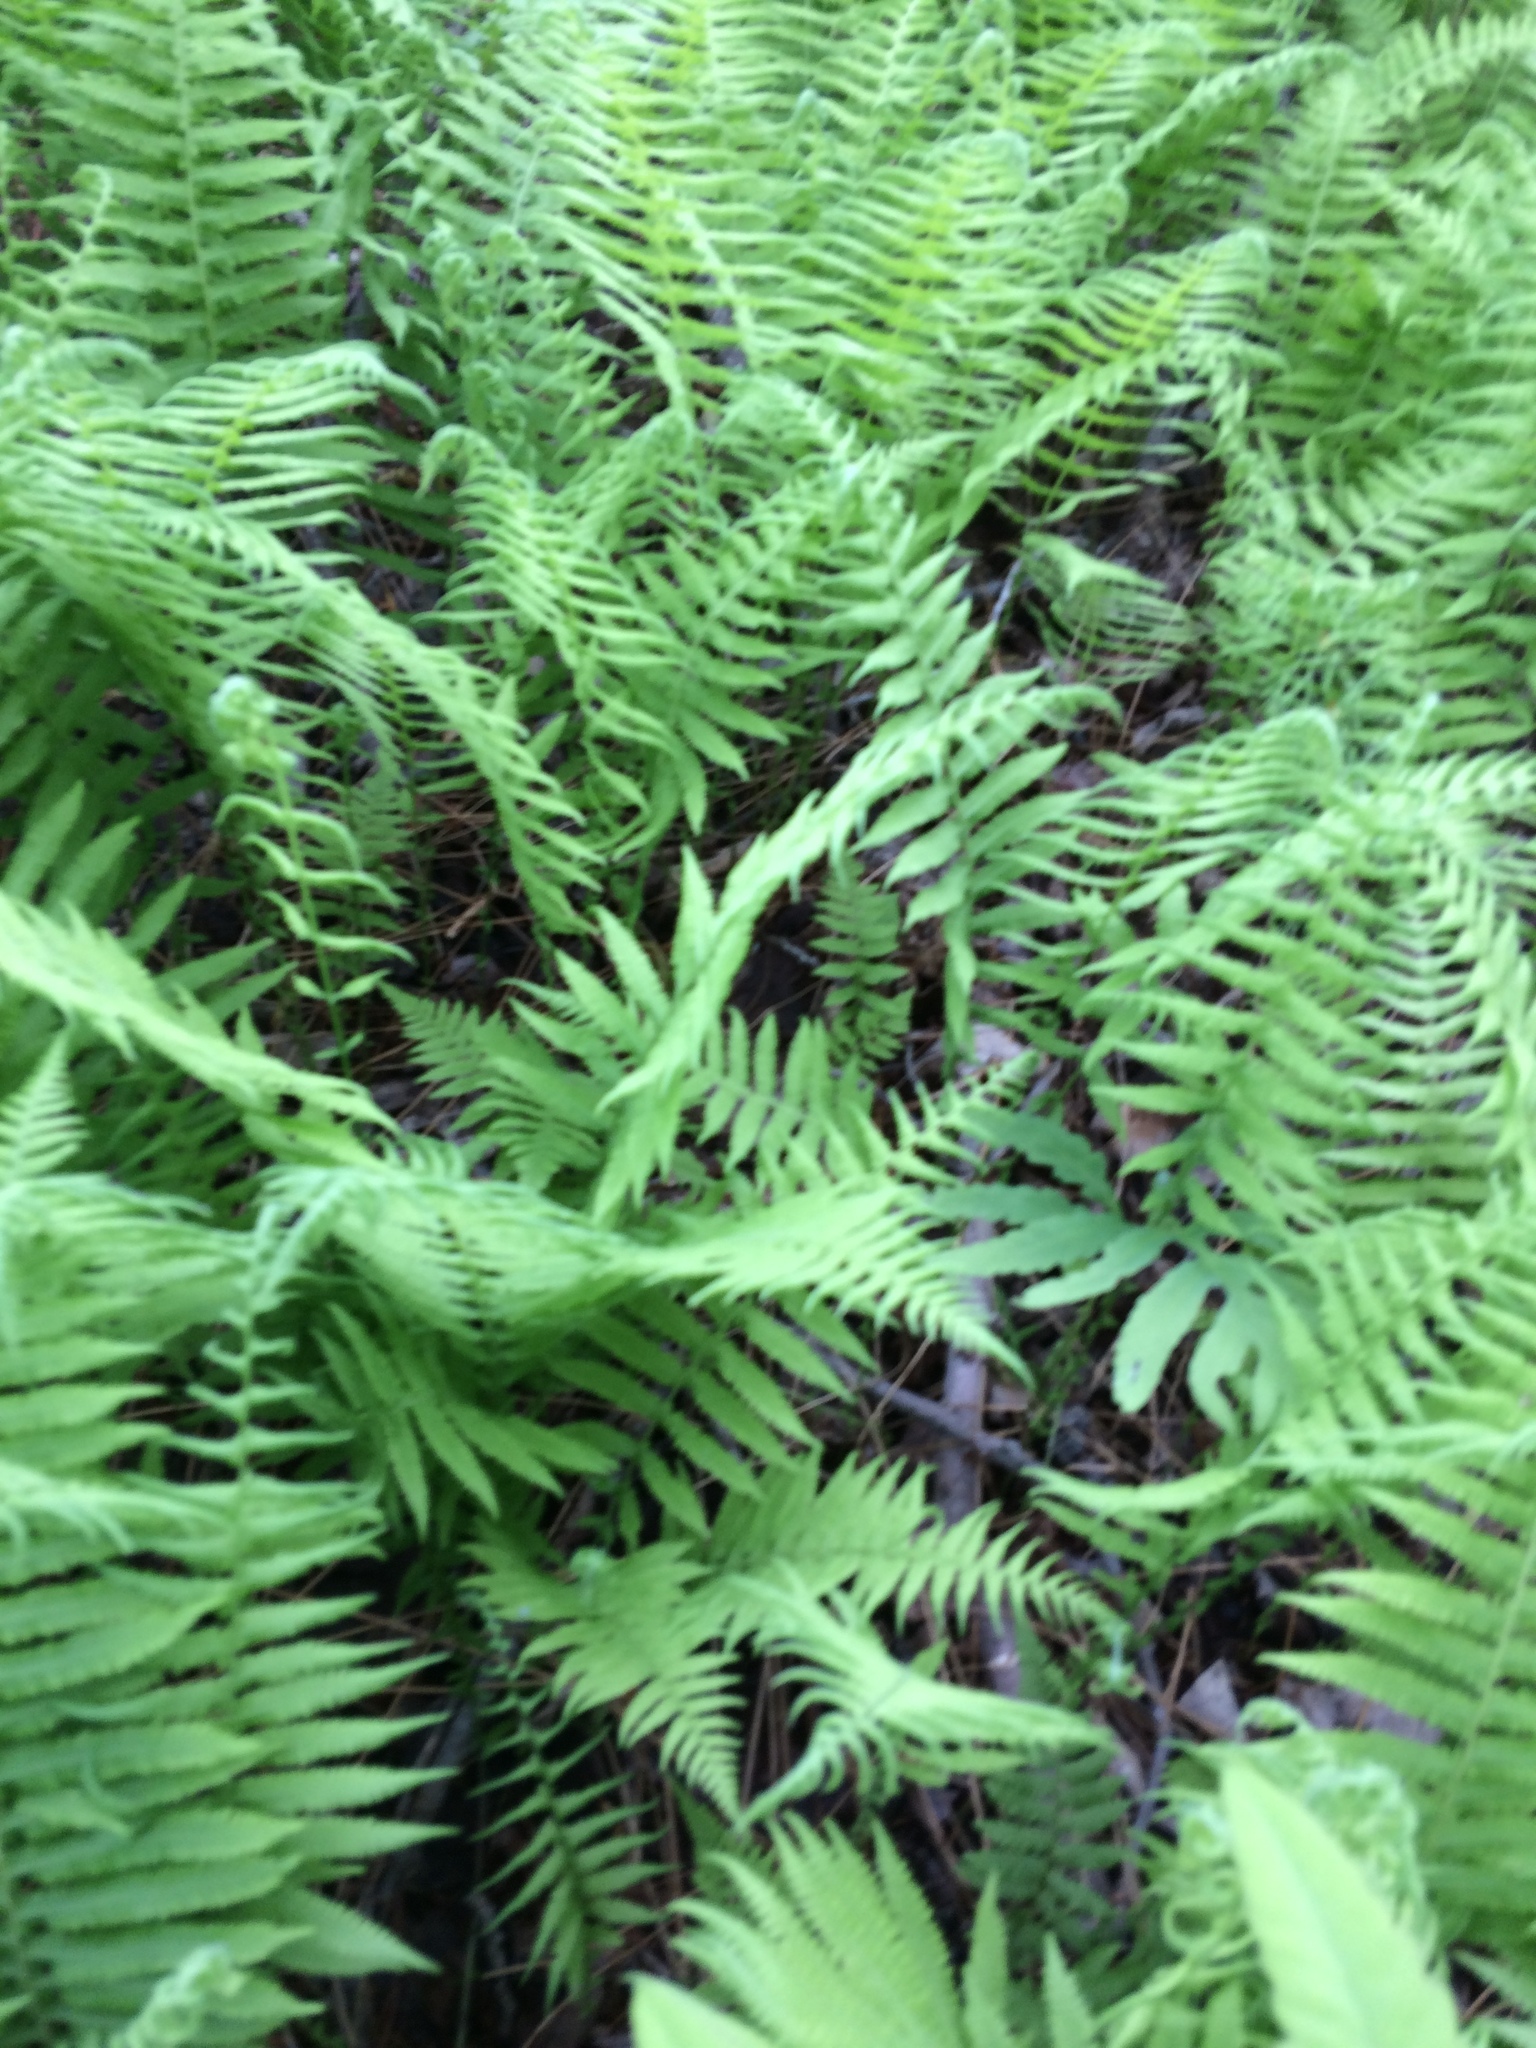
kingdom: Plantae
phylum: Tracheophyta
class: Polypodiopsida
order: Polypodiales
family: Thelypteridaceae
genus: Amauropelta
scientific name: Amauropelta noveboracensis
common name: New york fern
